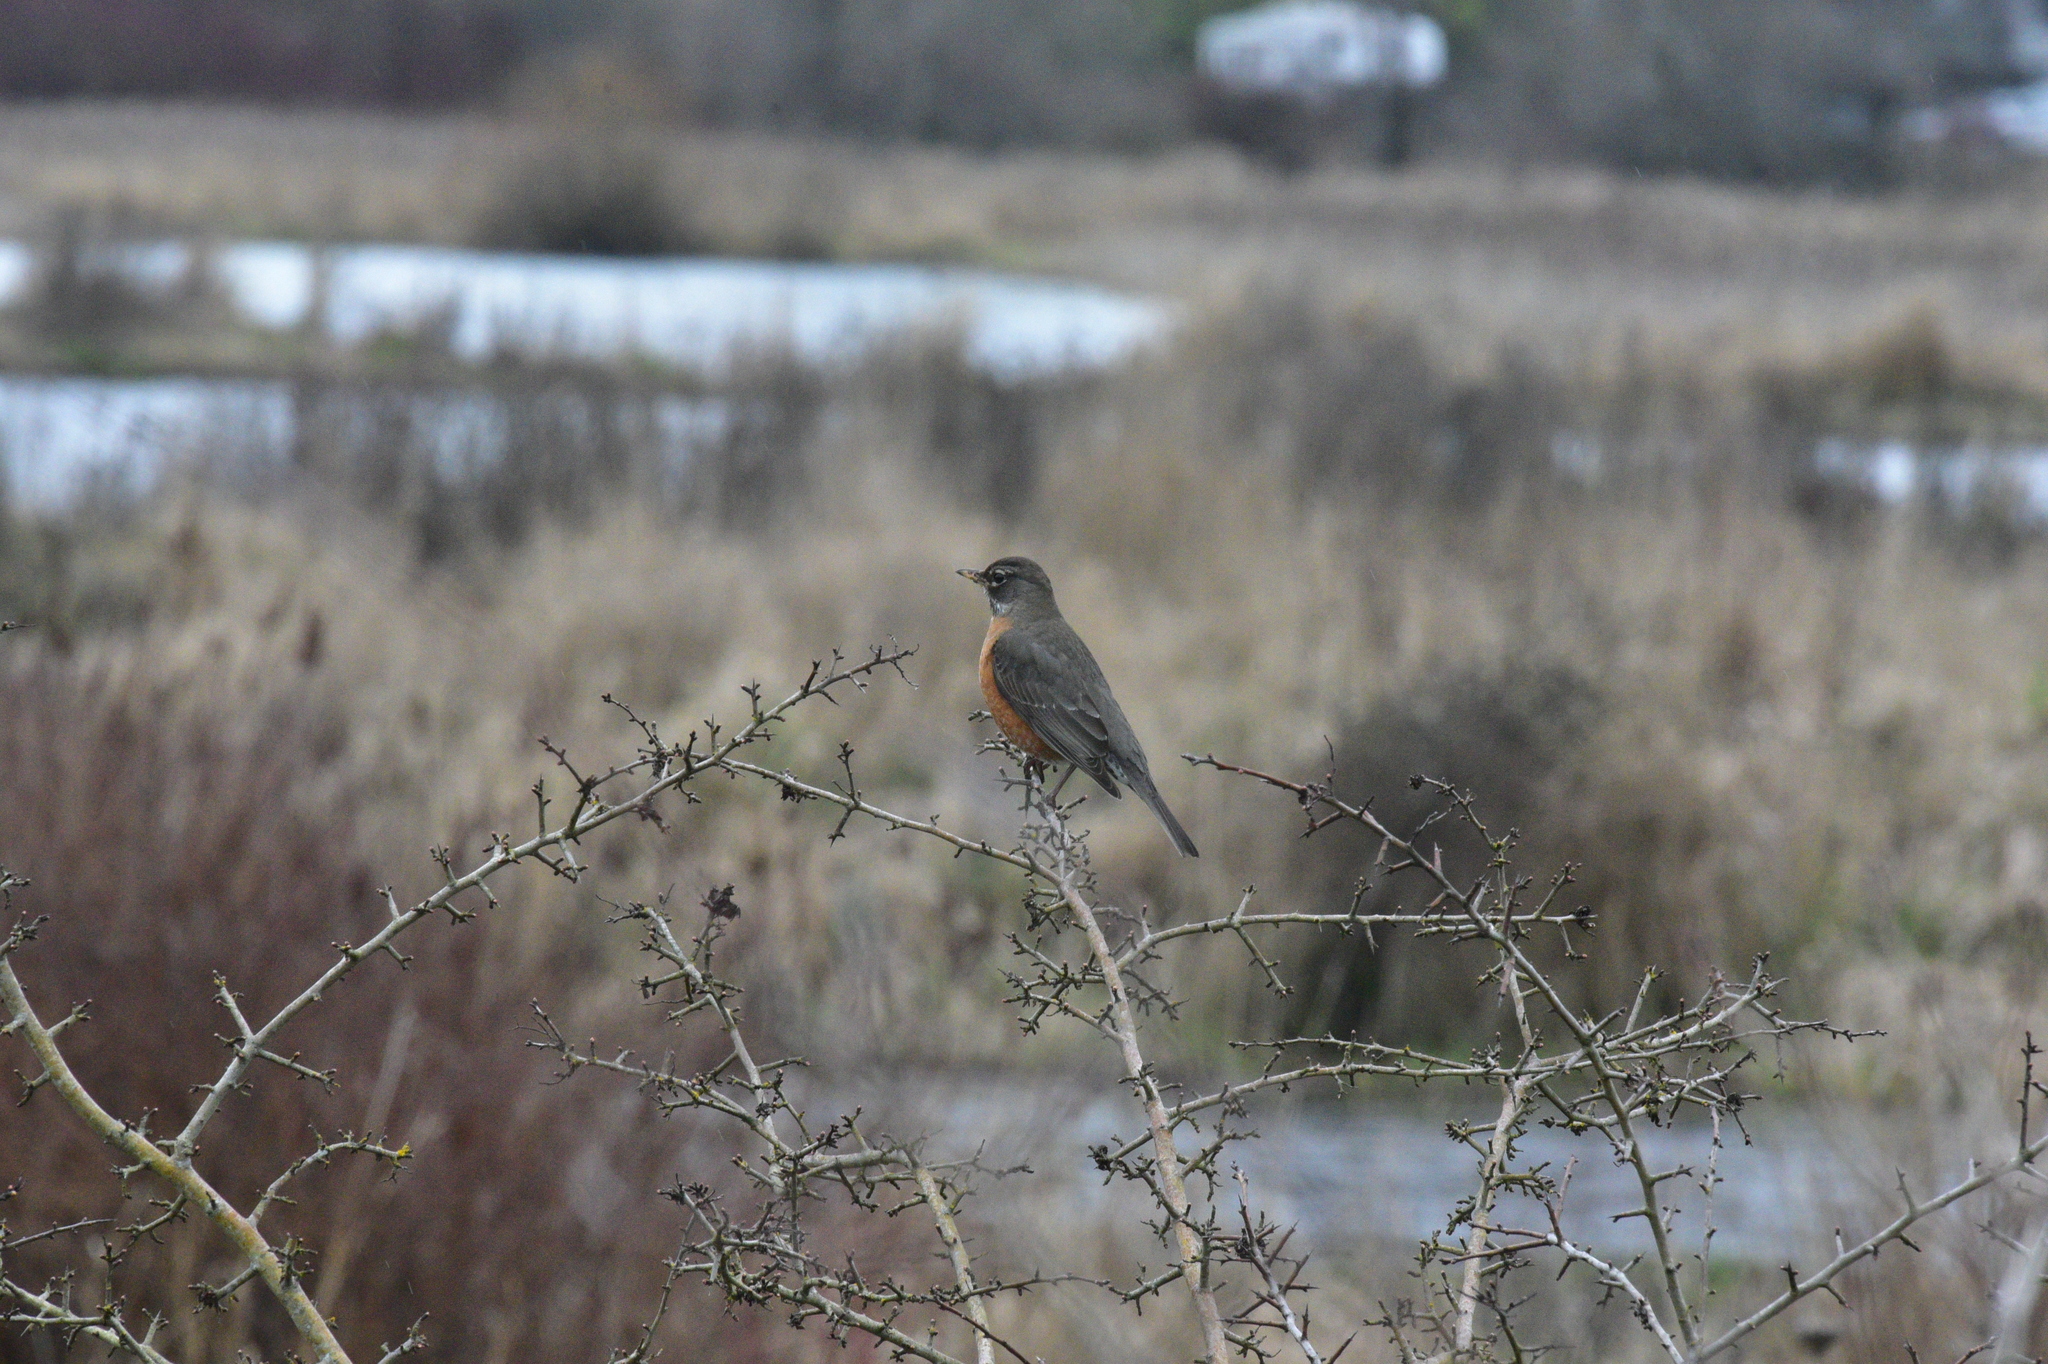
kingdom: Animalia
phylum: Chordata
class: Aves
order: Passeriformes
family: Turdidae
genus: Turdus
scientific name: Turdus migratorius
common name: American robin
